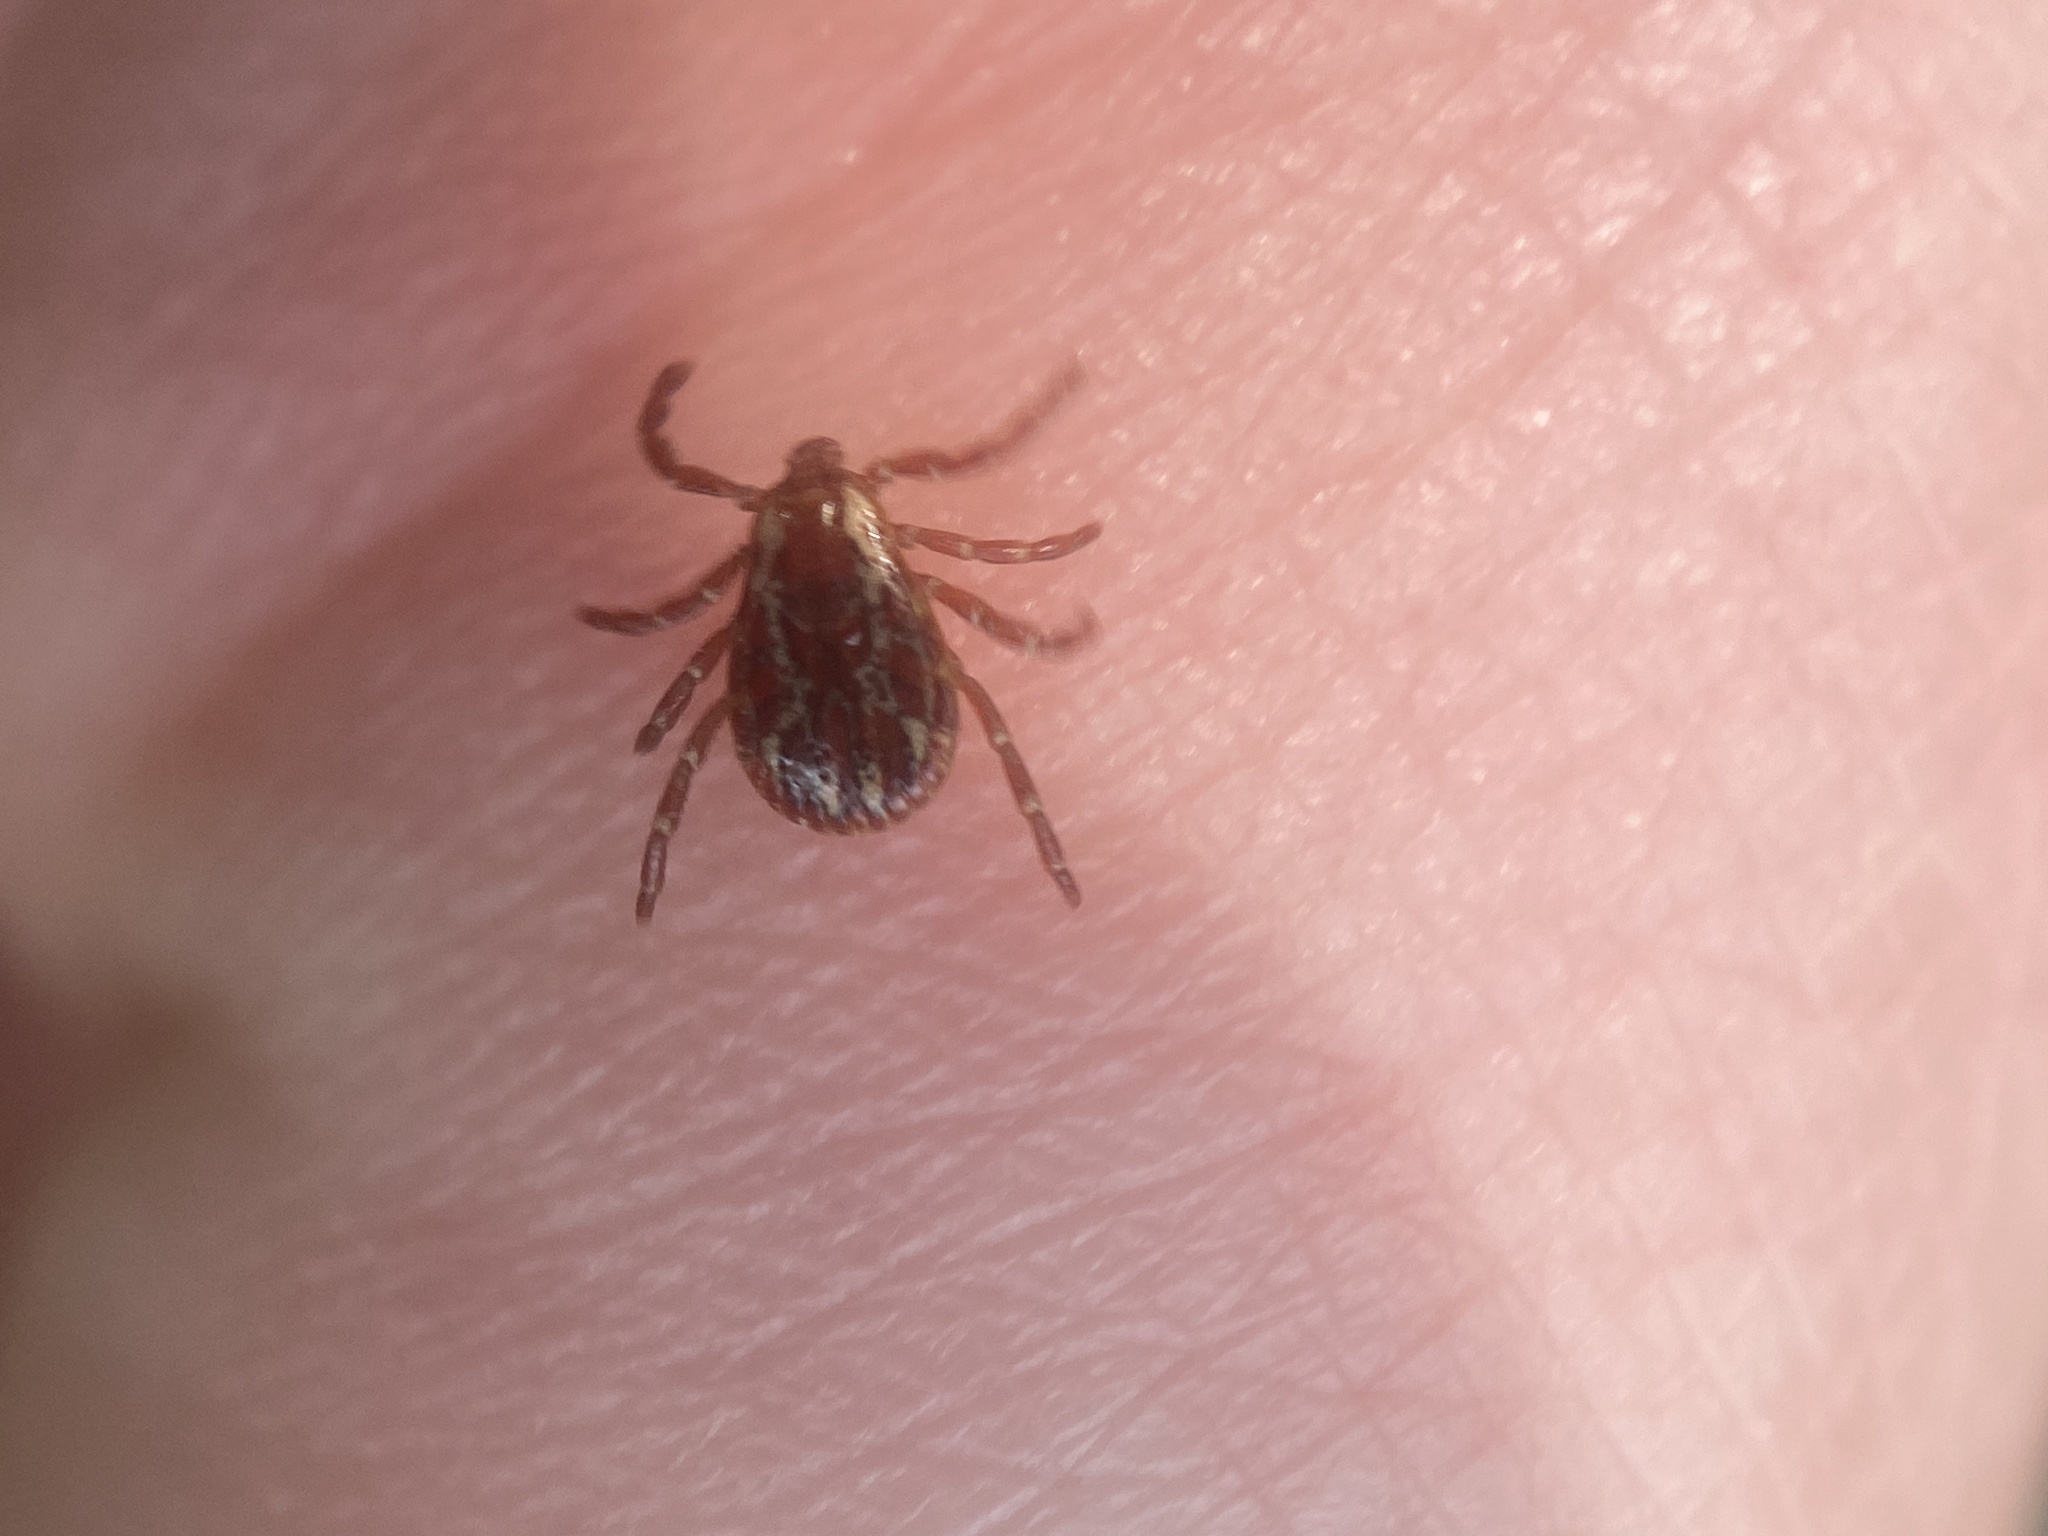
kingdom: Animalia
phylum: Arthropoda
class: Arachnida
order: Ixodida
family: Ixodidae
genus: Dermacentor
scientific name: Dermacentor variabilis
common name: American dog tick
